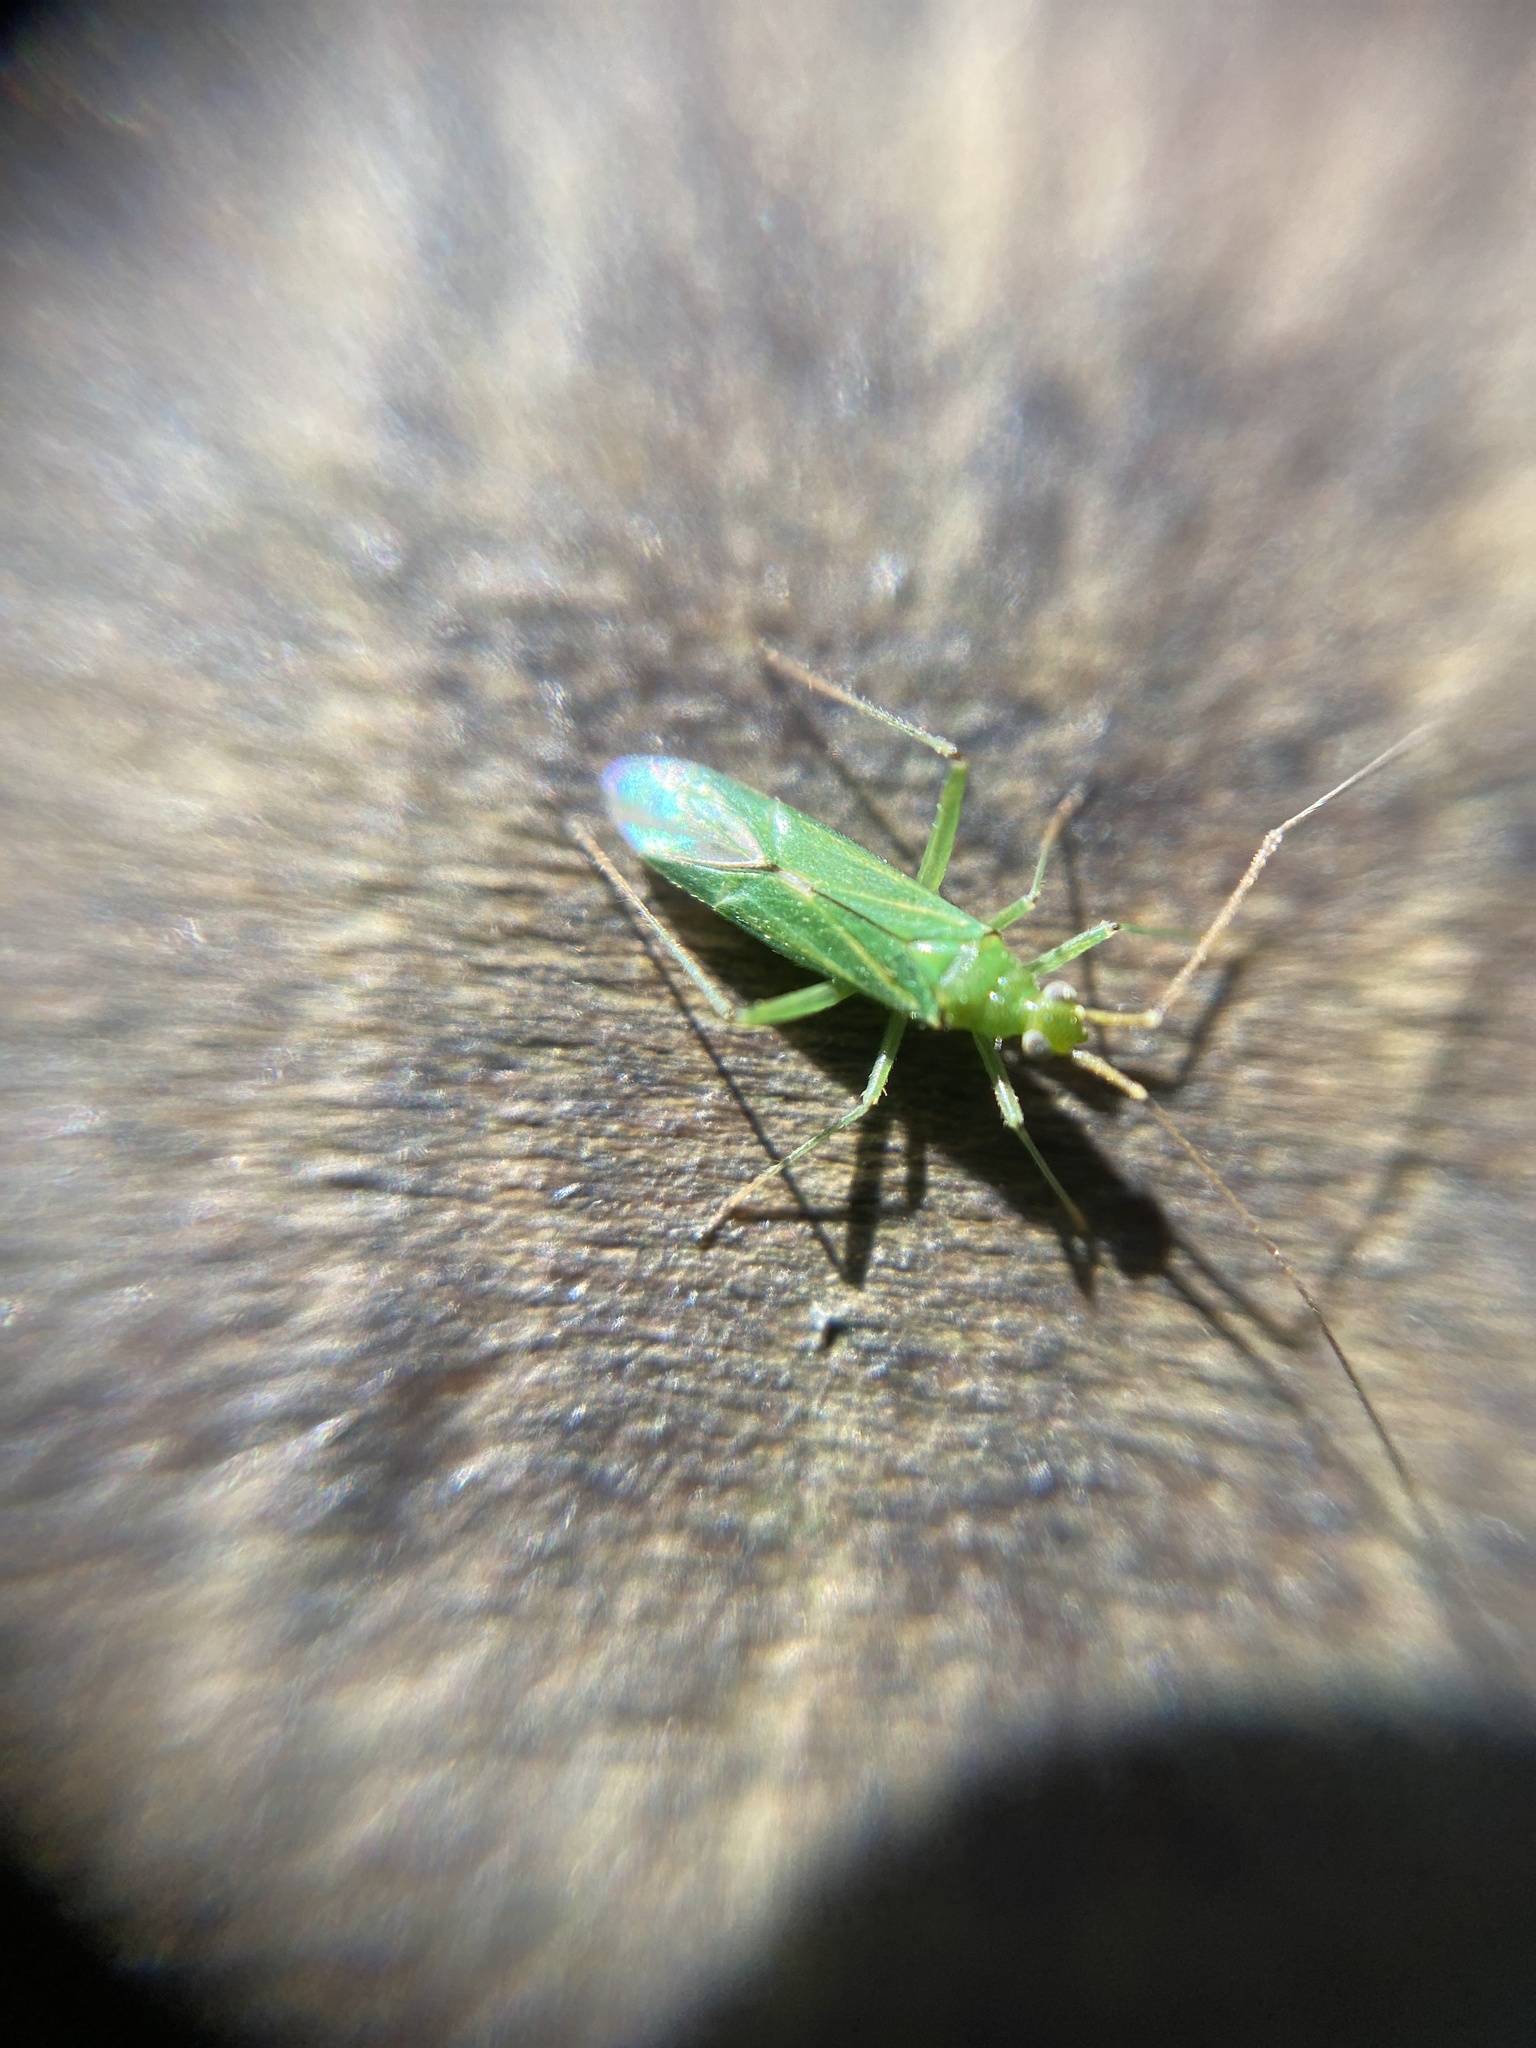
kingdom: Animalia
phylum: Arthropoda
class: Insecta
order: Hemiptera
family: Miridae
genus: Blepharidopterus
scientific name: Blepharidopterus angulatus
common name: Plant bug
